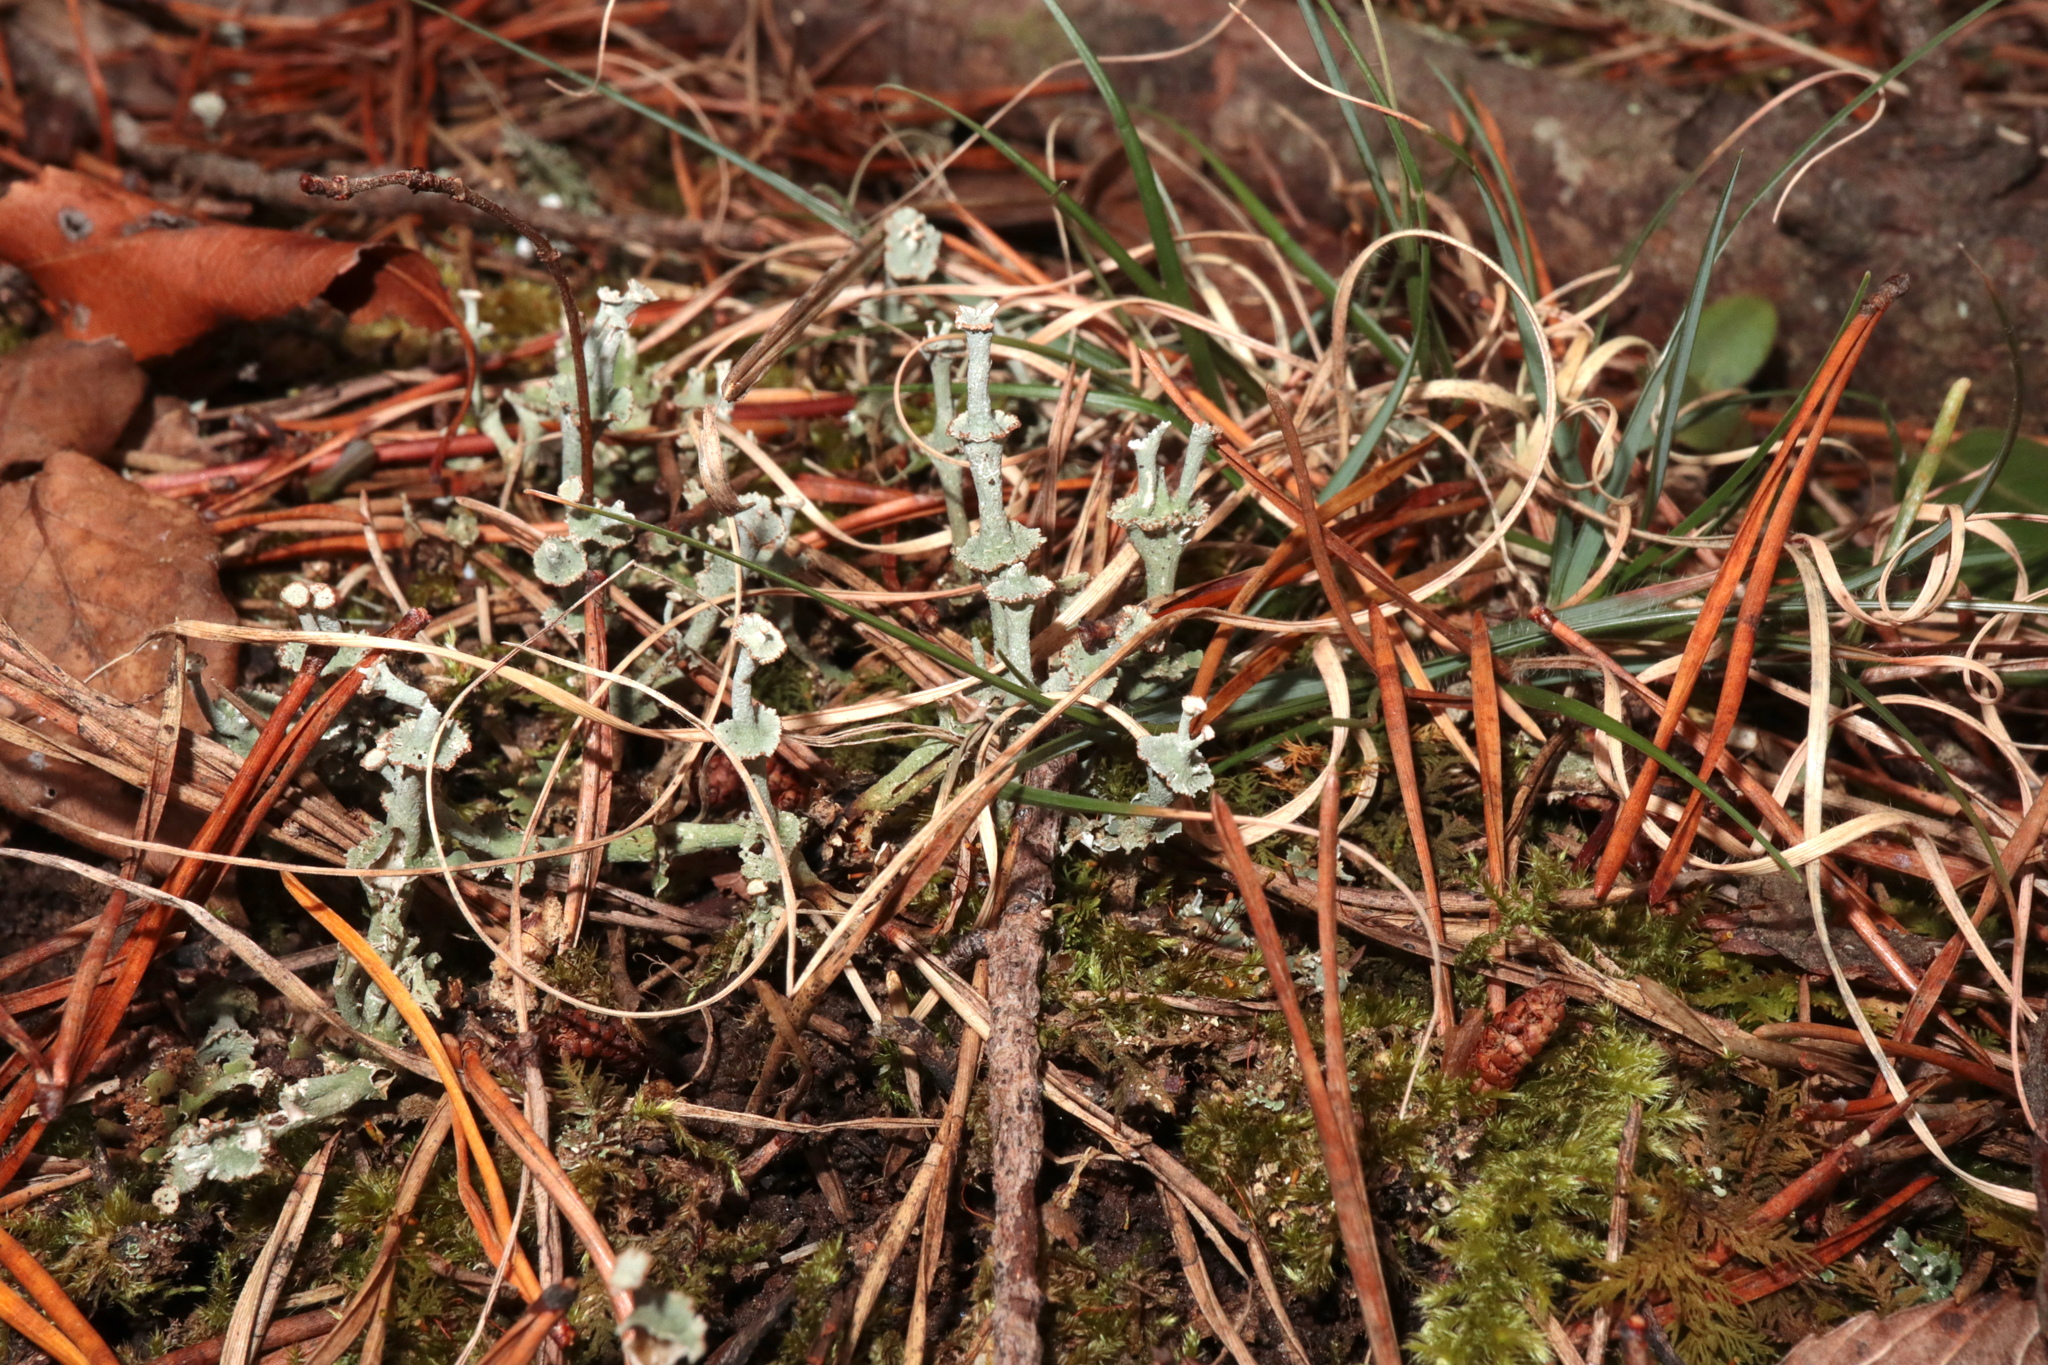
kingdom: Fungi
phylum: Ascomycota
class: Lecanoromycetes
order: Lecanorales
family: Cladoniaceae
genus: Cladonia
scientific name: Cladonia cervicornis
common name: Browned pixie-cup lichen
